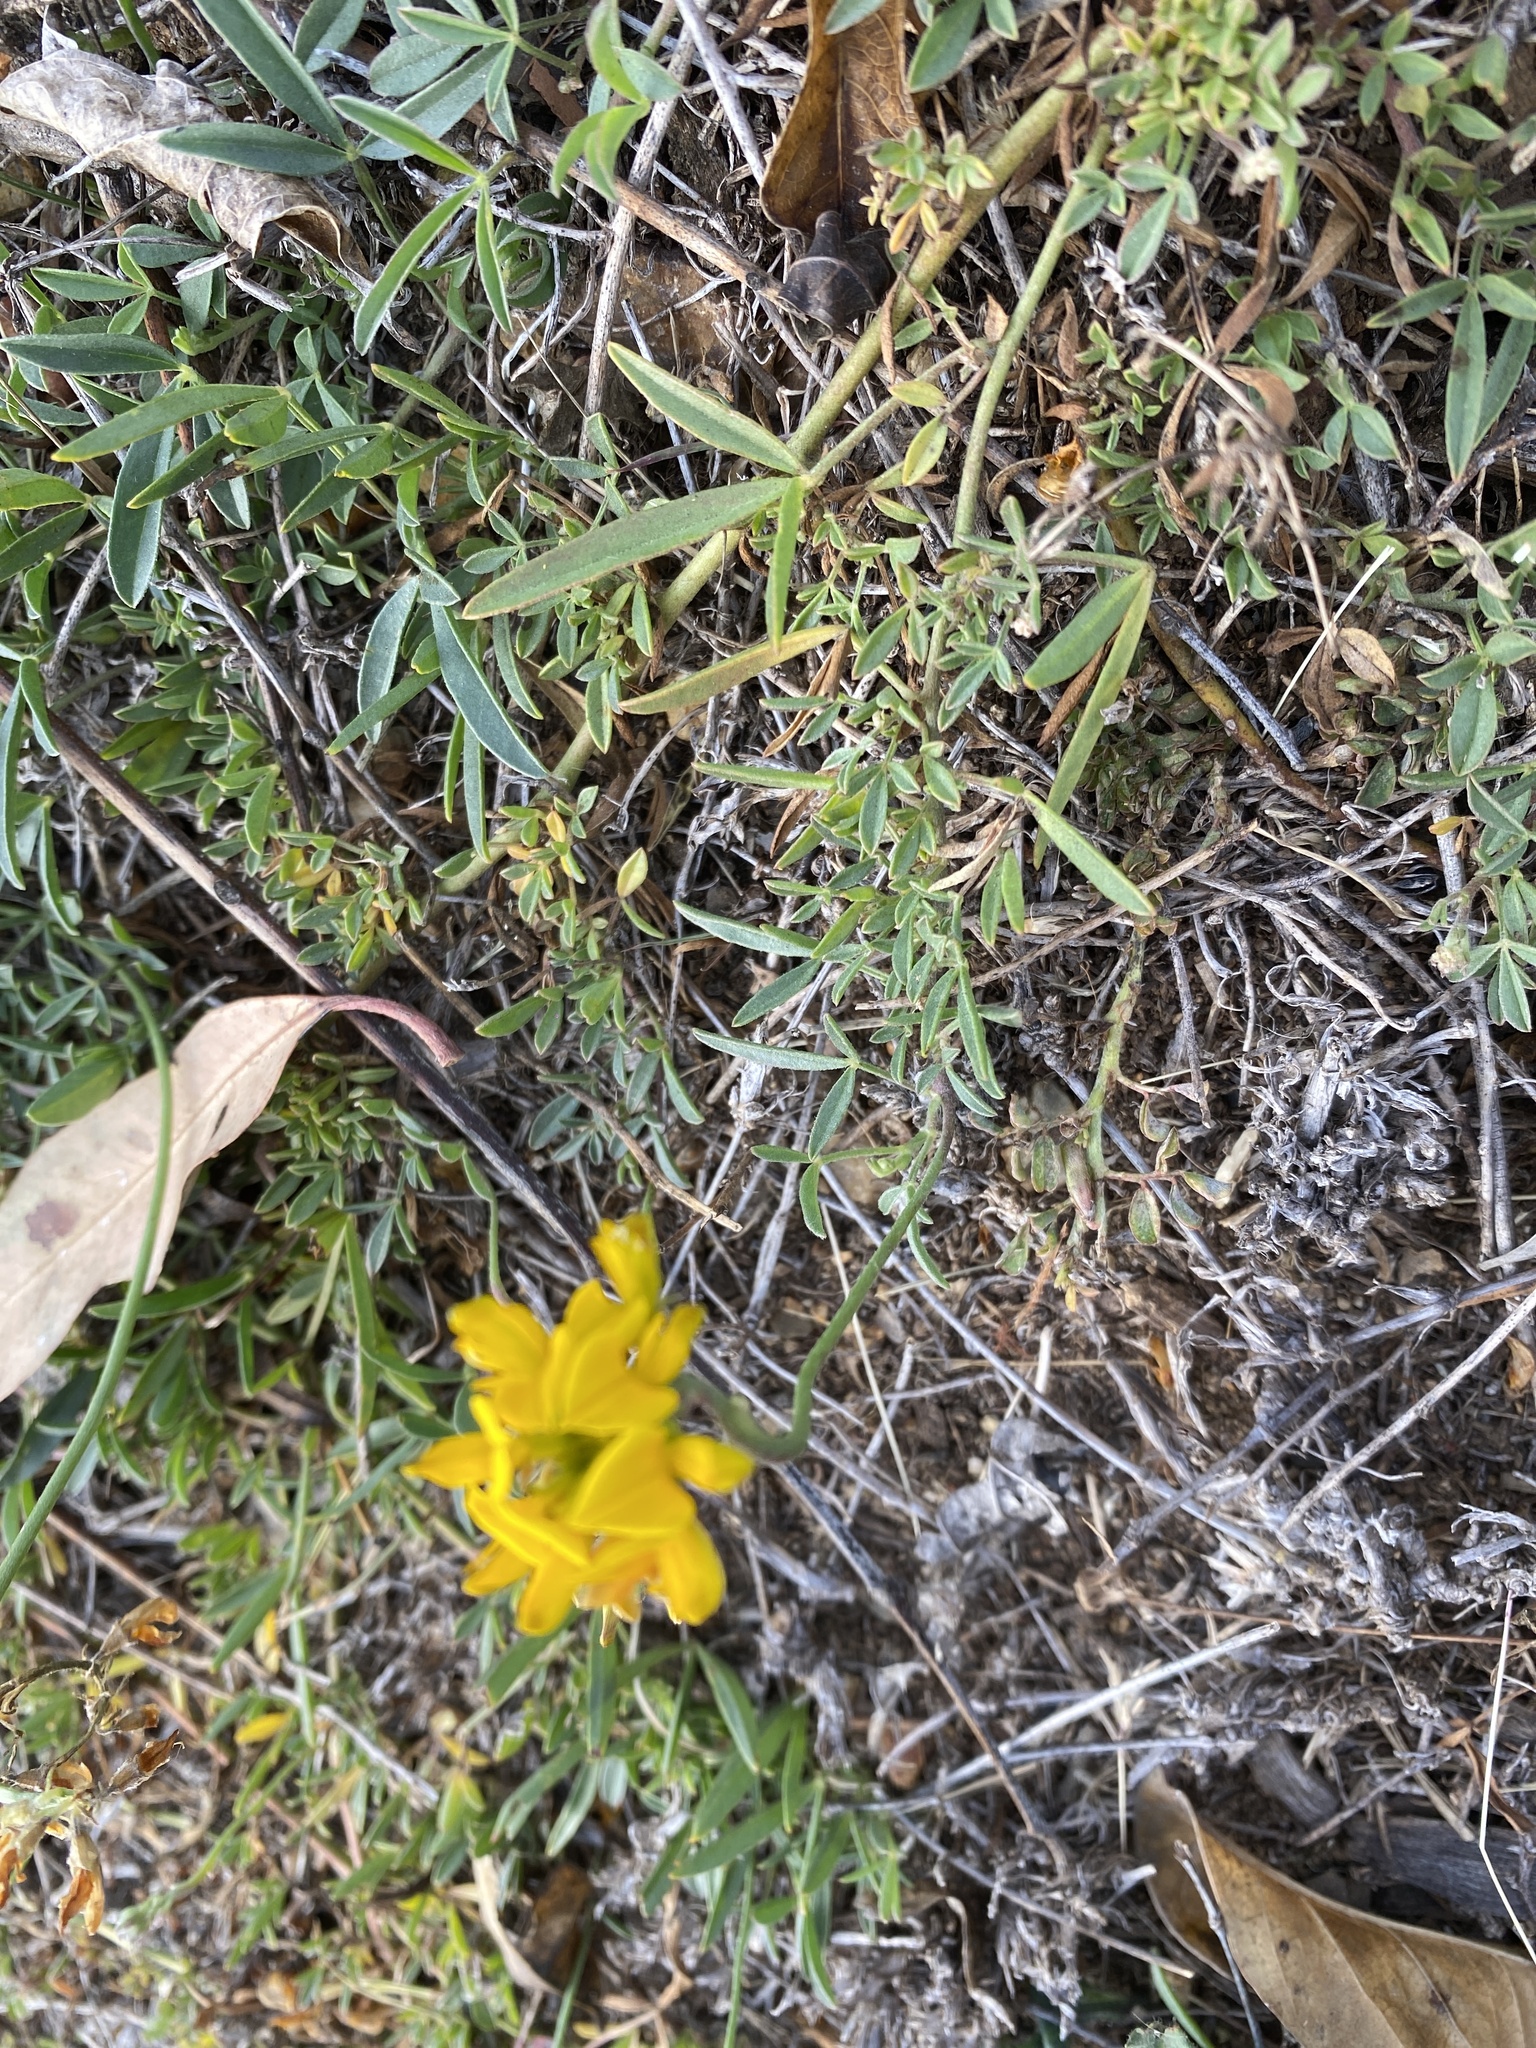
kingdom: Plantae
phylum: Tracheophyta
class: Magnoliopsida
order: Fabales
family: Fabaceae
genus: Listia
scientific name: Listia bainesii
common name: Lotononis
